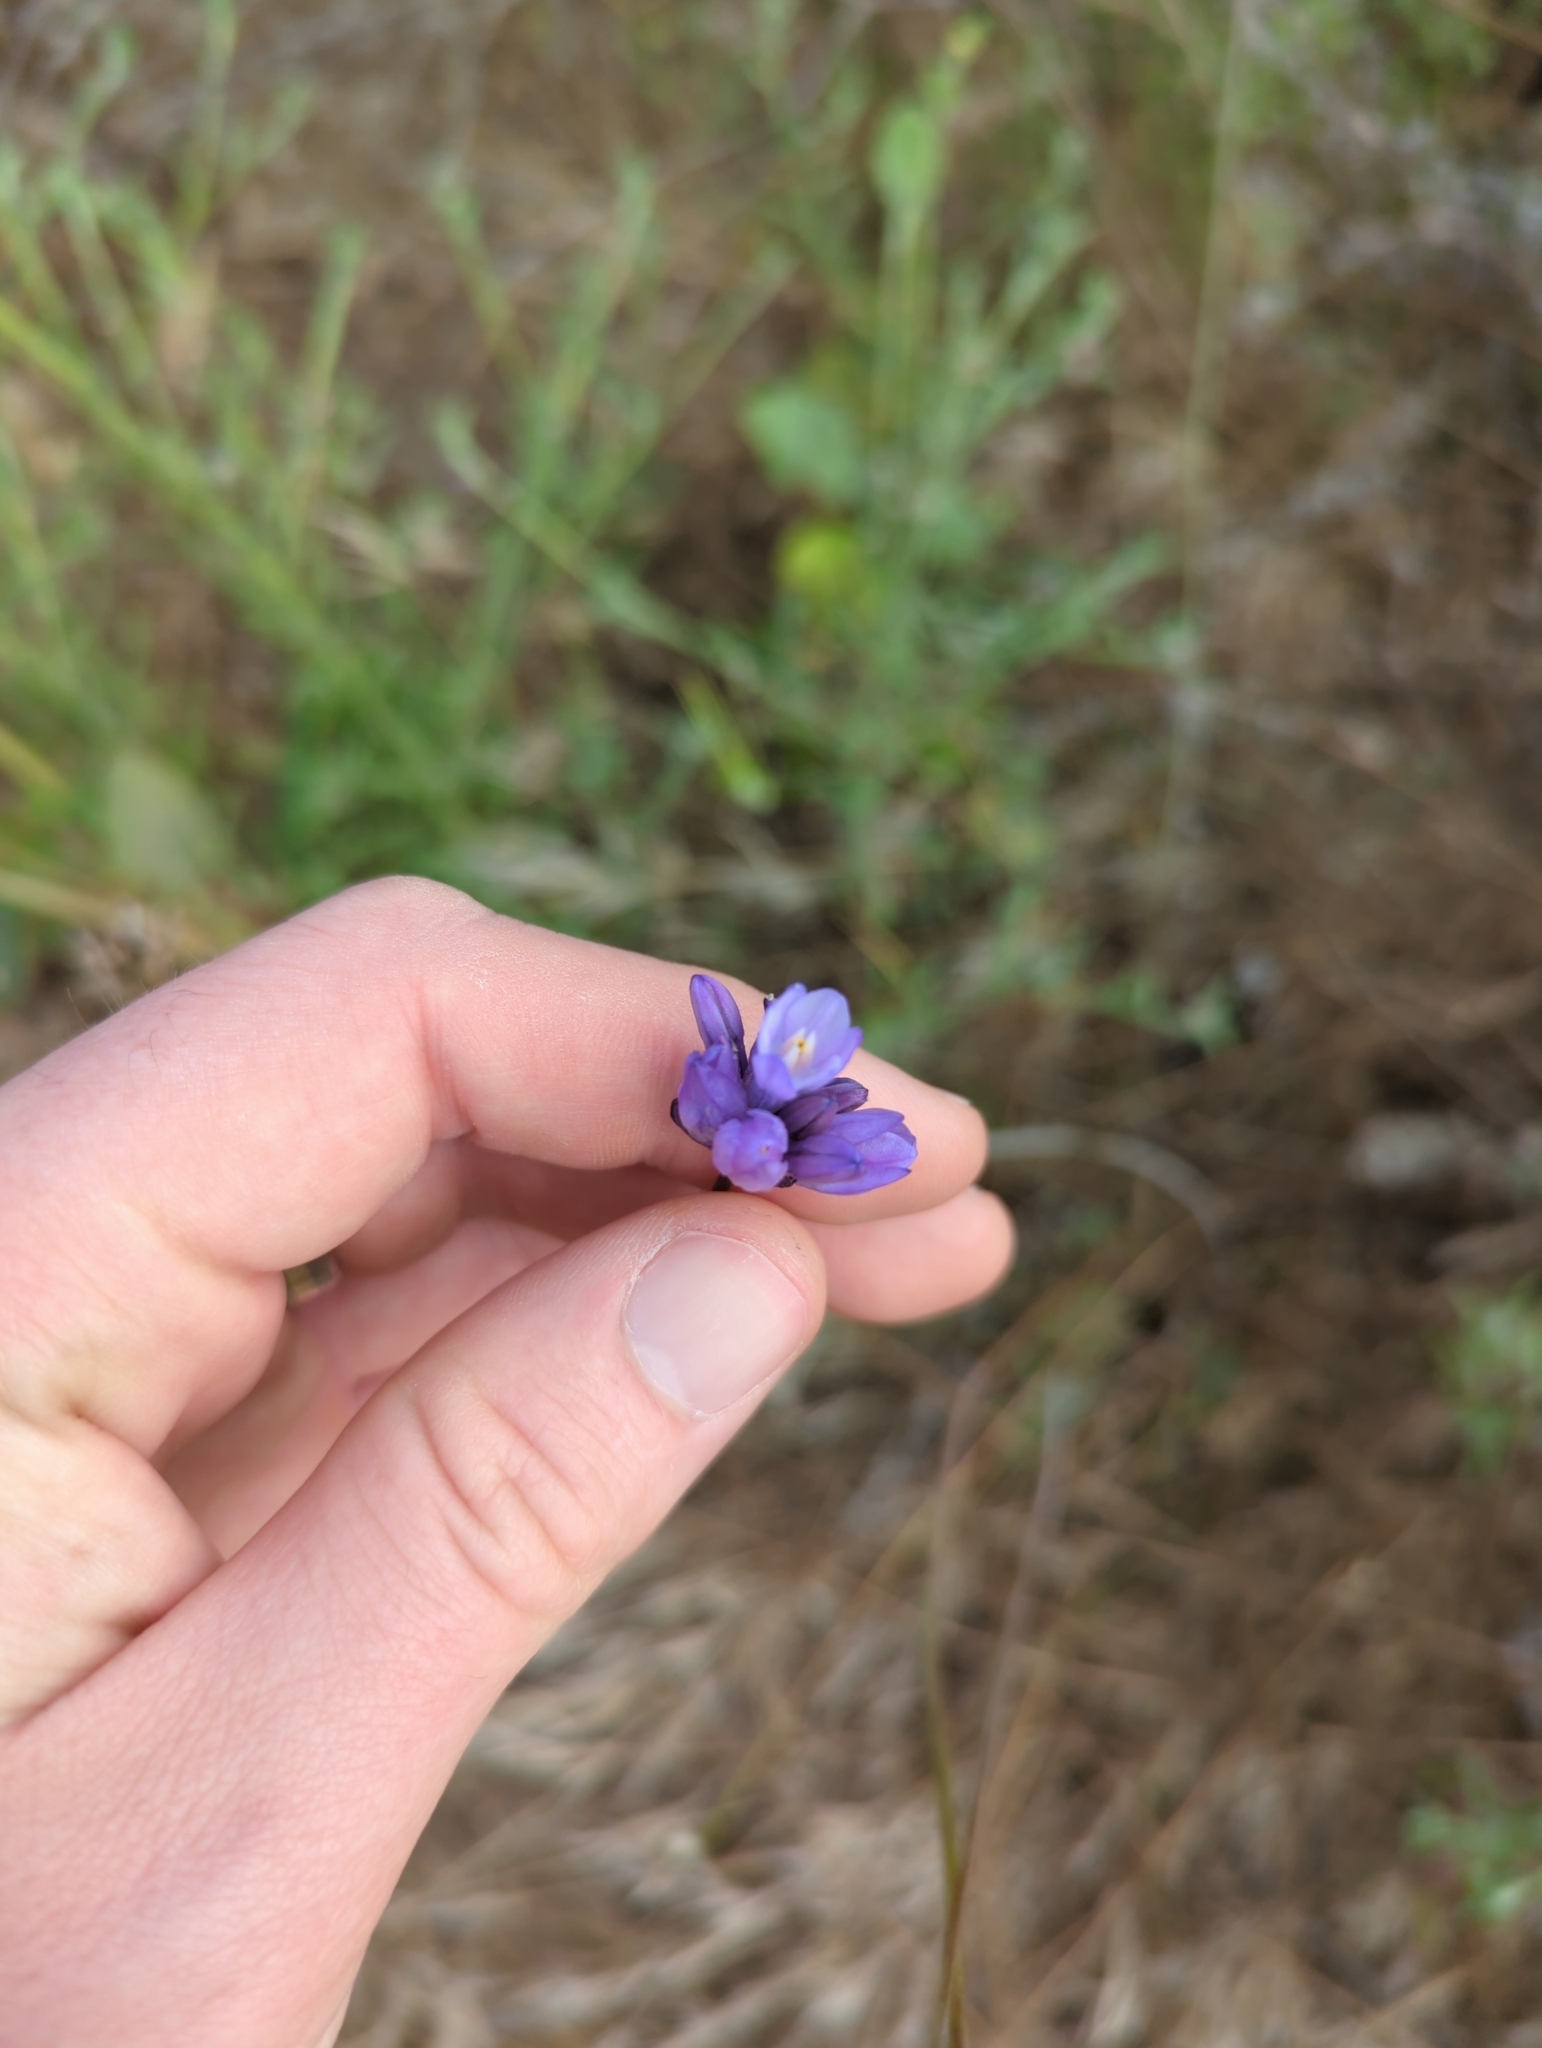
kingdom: Plantae
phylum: Tracheophyta
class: Liliopsida
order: Asparagales
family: Asparagaceae
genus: Dipterostemon
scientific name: Dipterostemon capitatus
